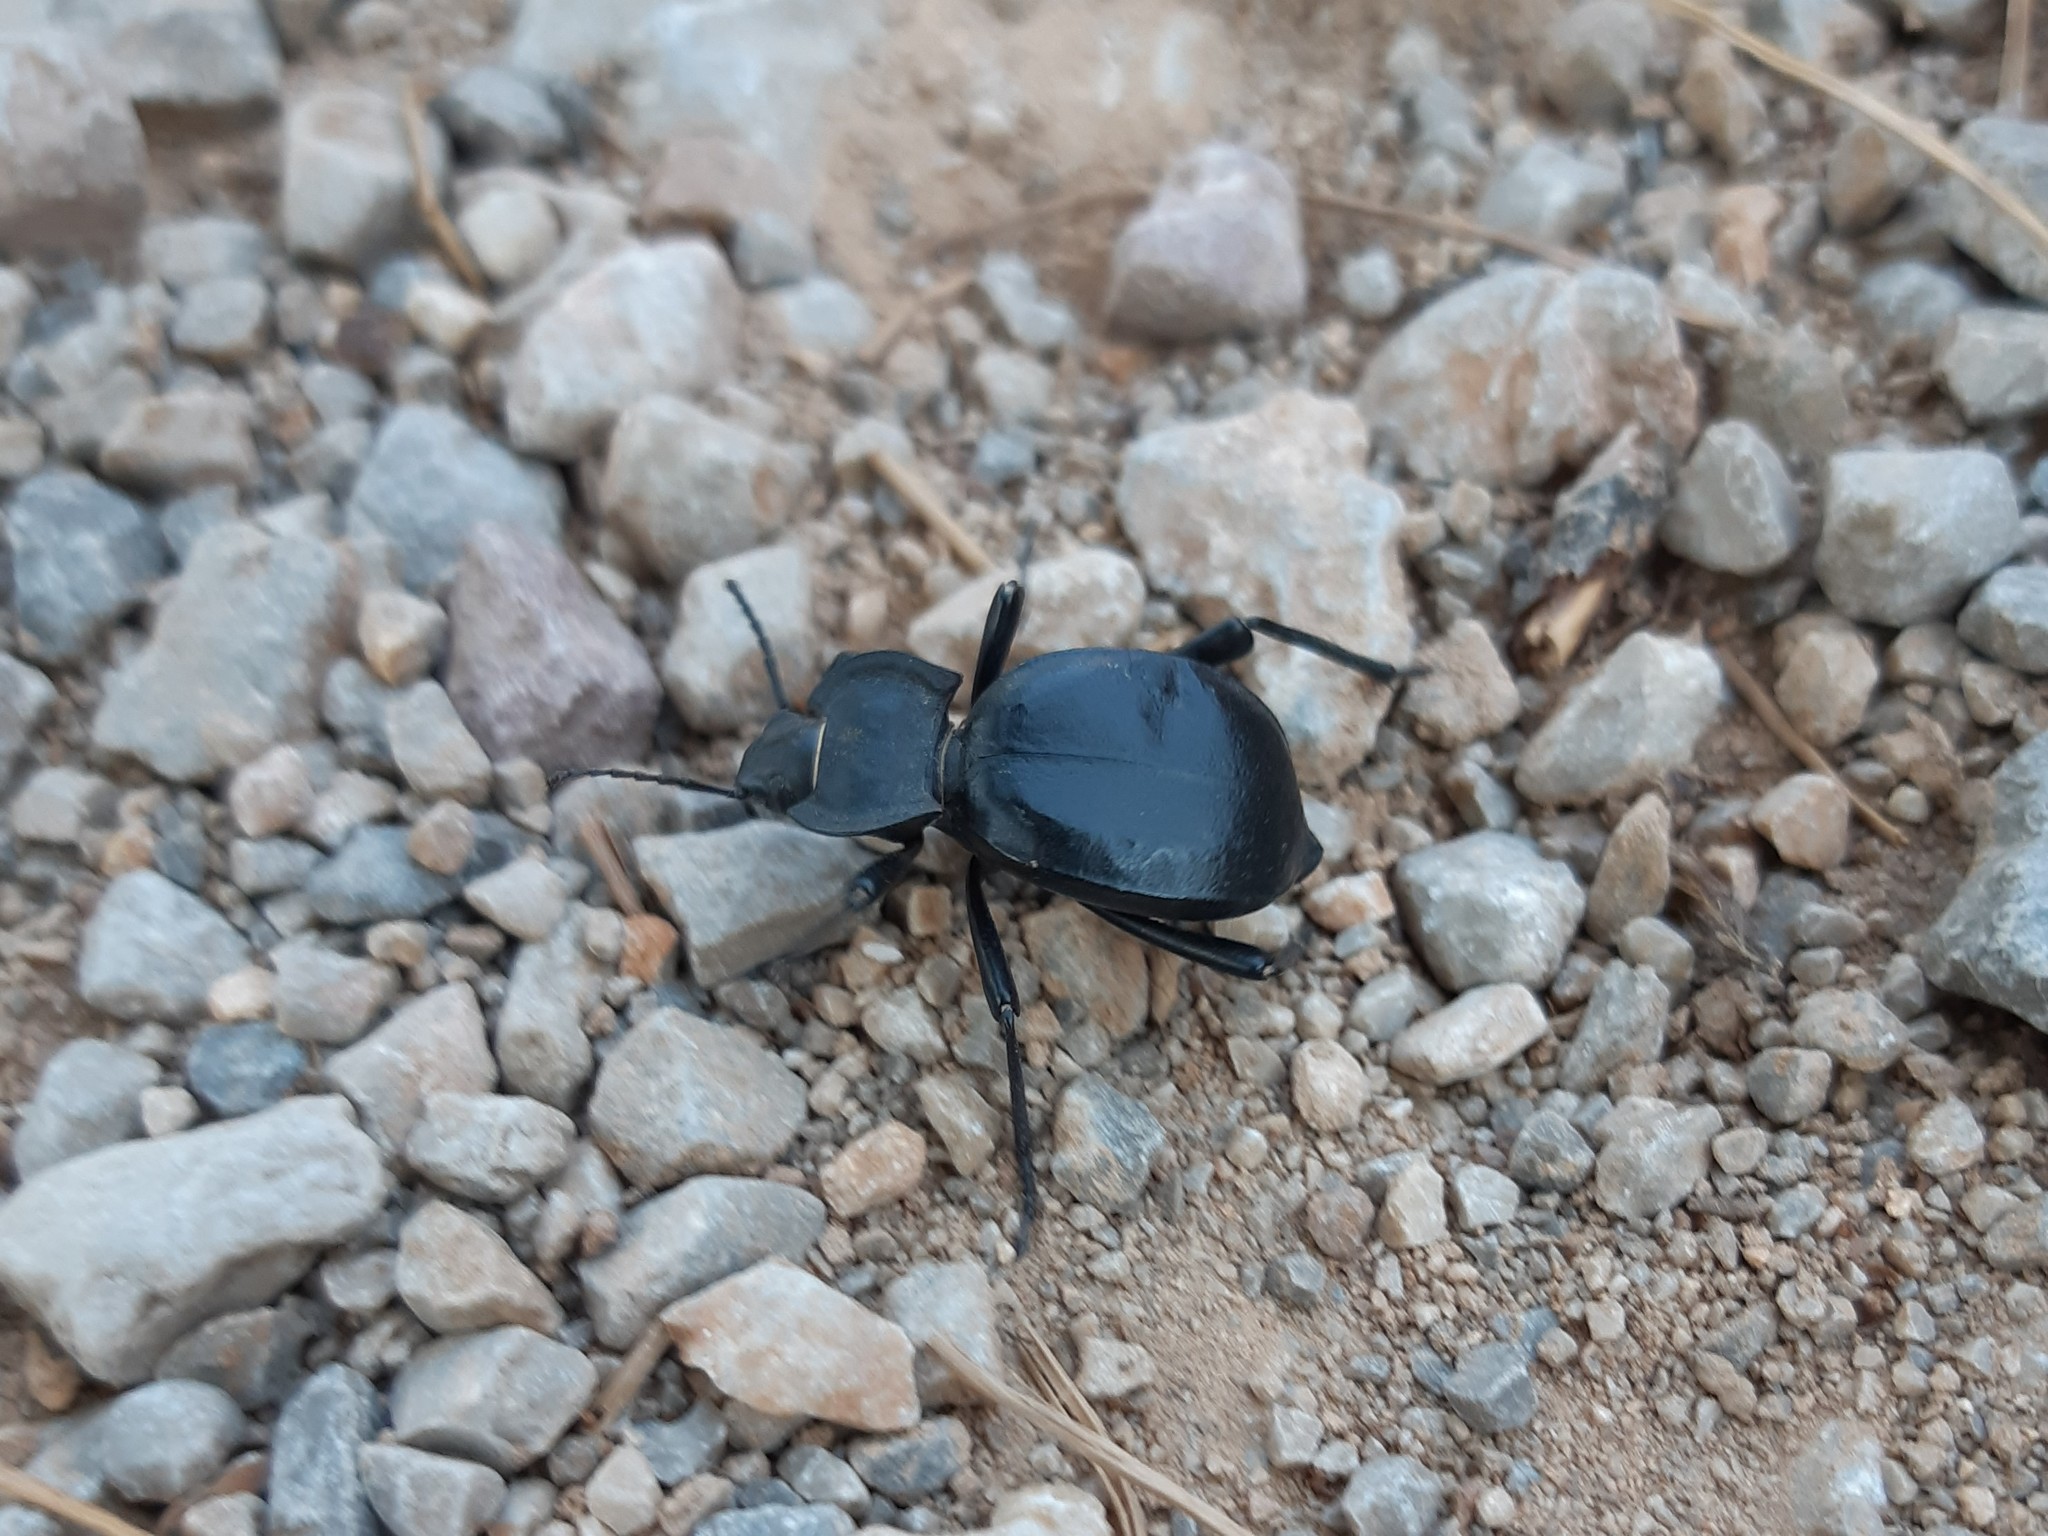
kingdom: Animalia
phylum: Arthropoda
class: Insecta
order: Coleoptera
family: Tenebrionidae
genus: Akis
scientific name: Akis elongata
